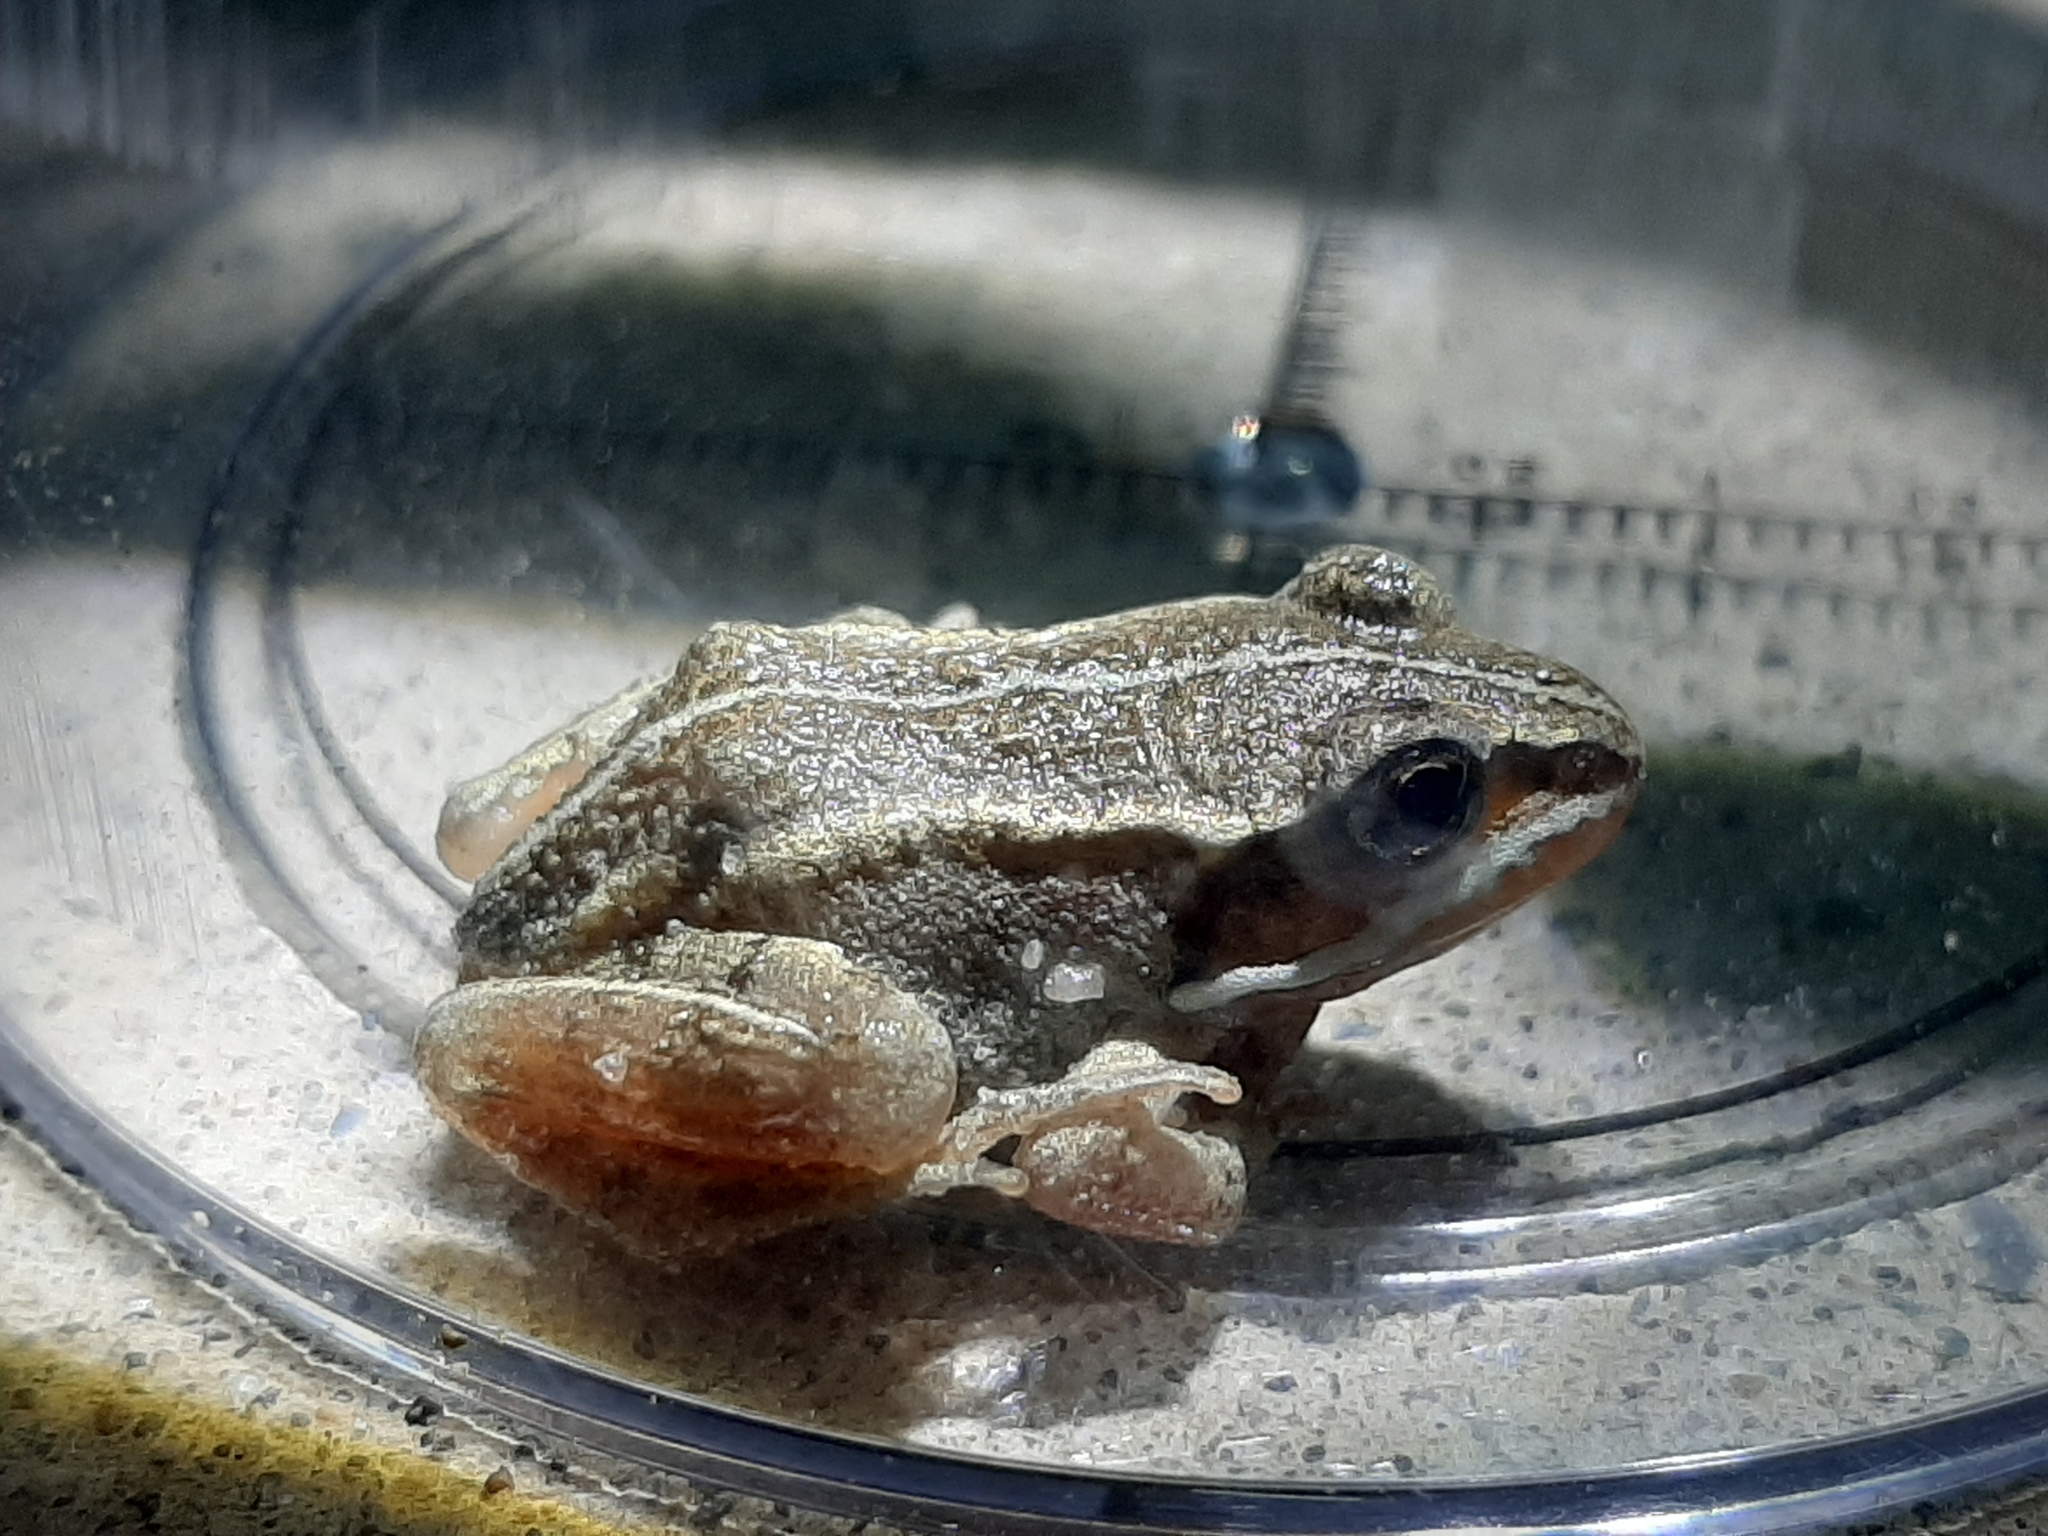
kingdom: Animalia
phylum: Chordata
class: Amphibia
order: Anura
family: Ranidae
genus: Lithobates
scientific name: Lithobates sylvaticus
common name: Wood frog
